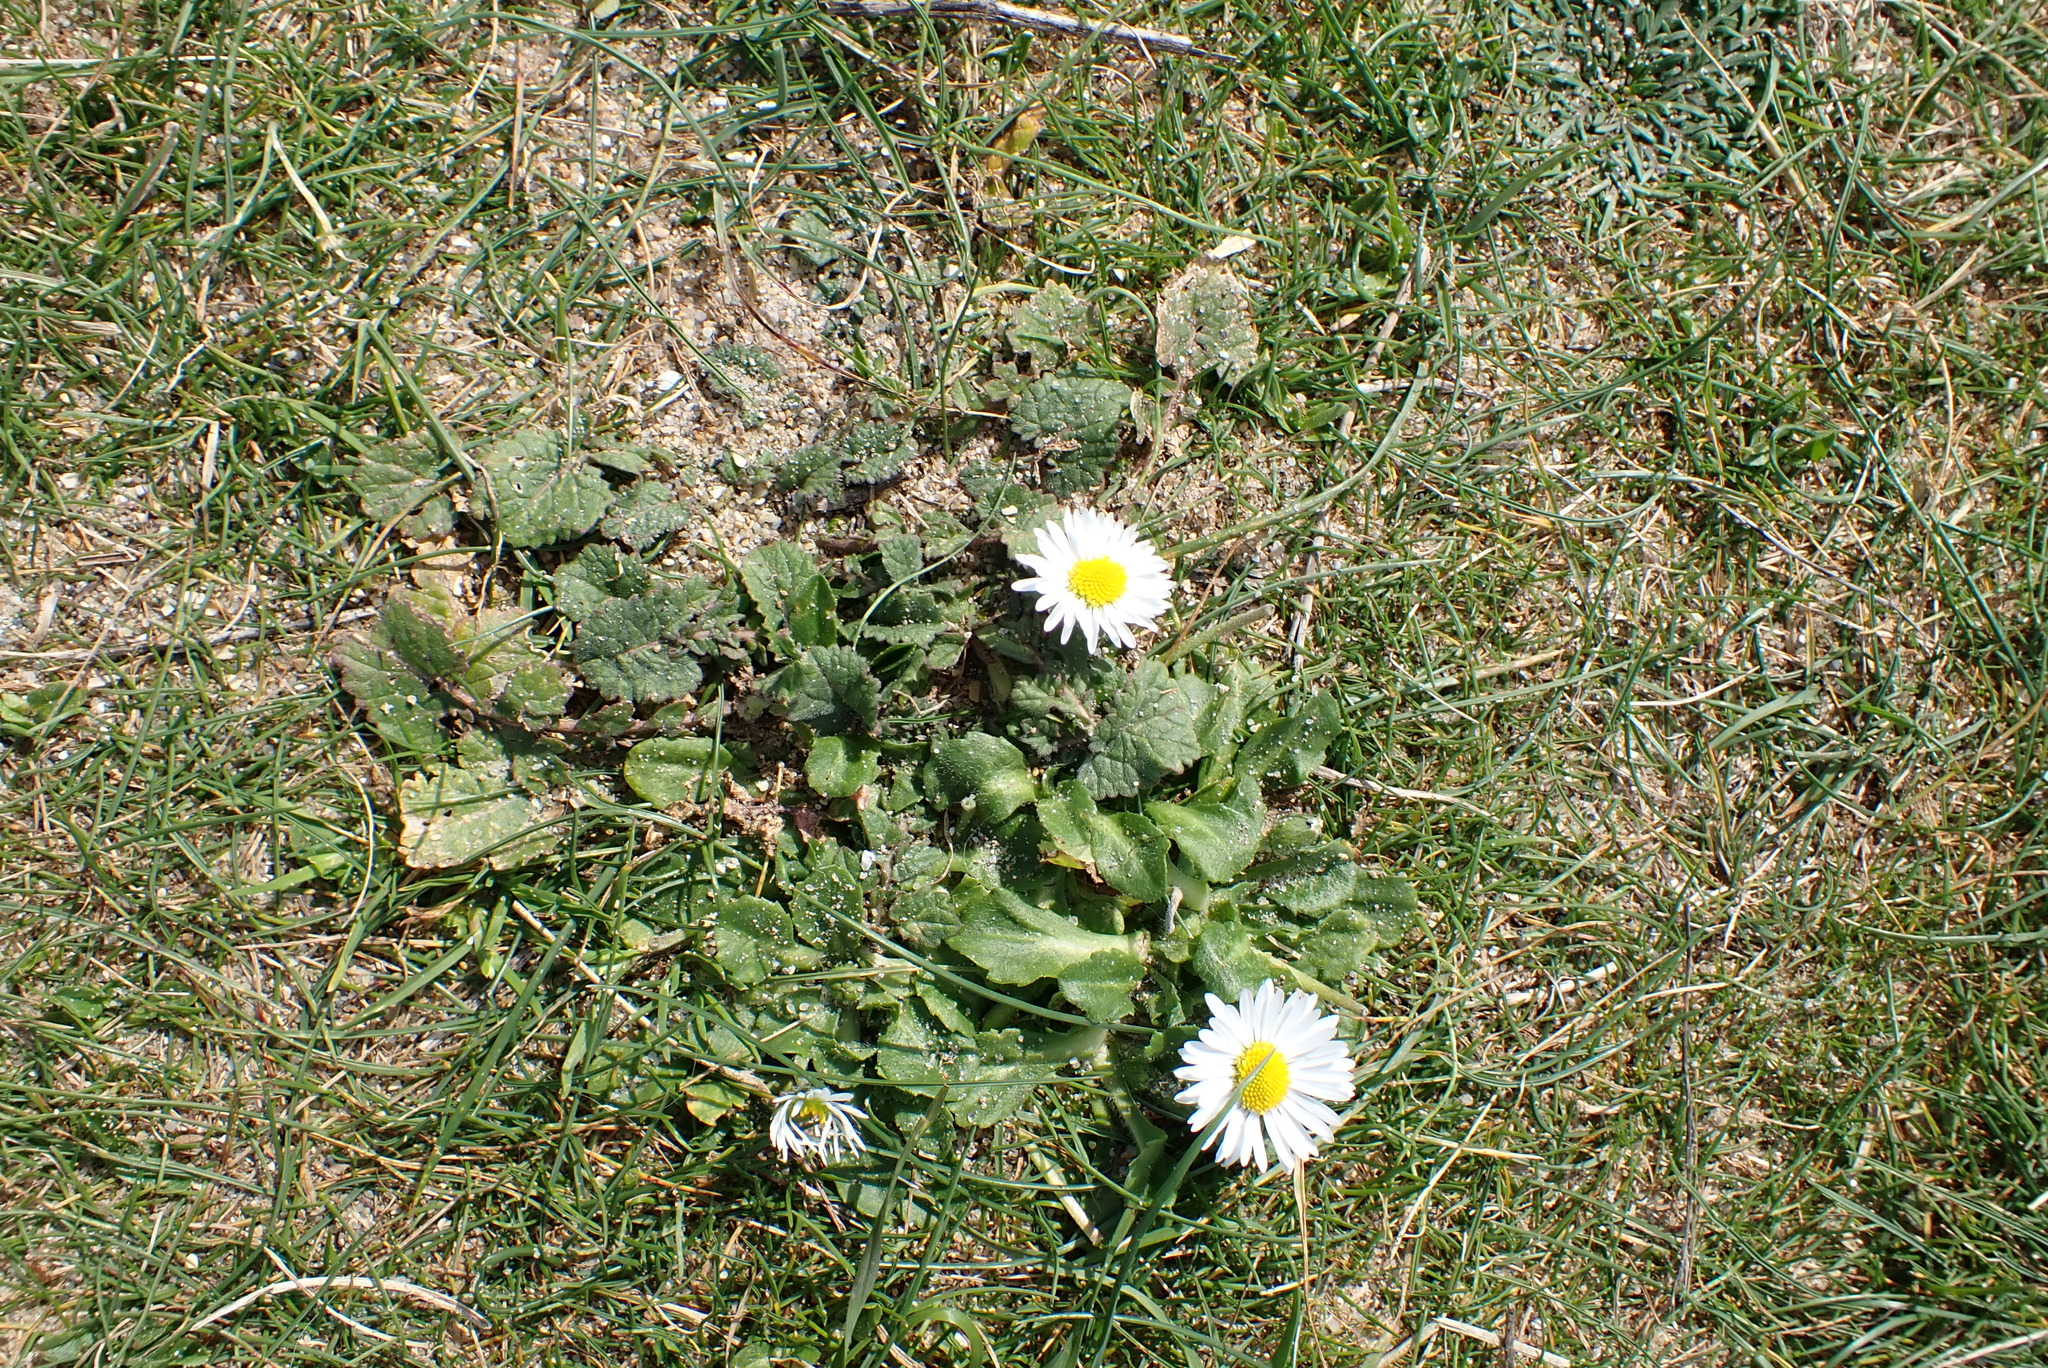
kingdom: Plantae
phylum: Tracheophyta
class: Magnoliopsida
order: Asterales
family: Asteraceae
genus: Bellis
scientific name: Bellis perennis
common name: Lawndaisy
